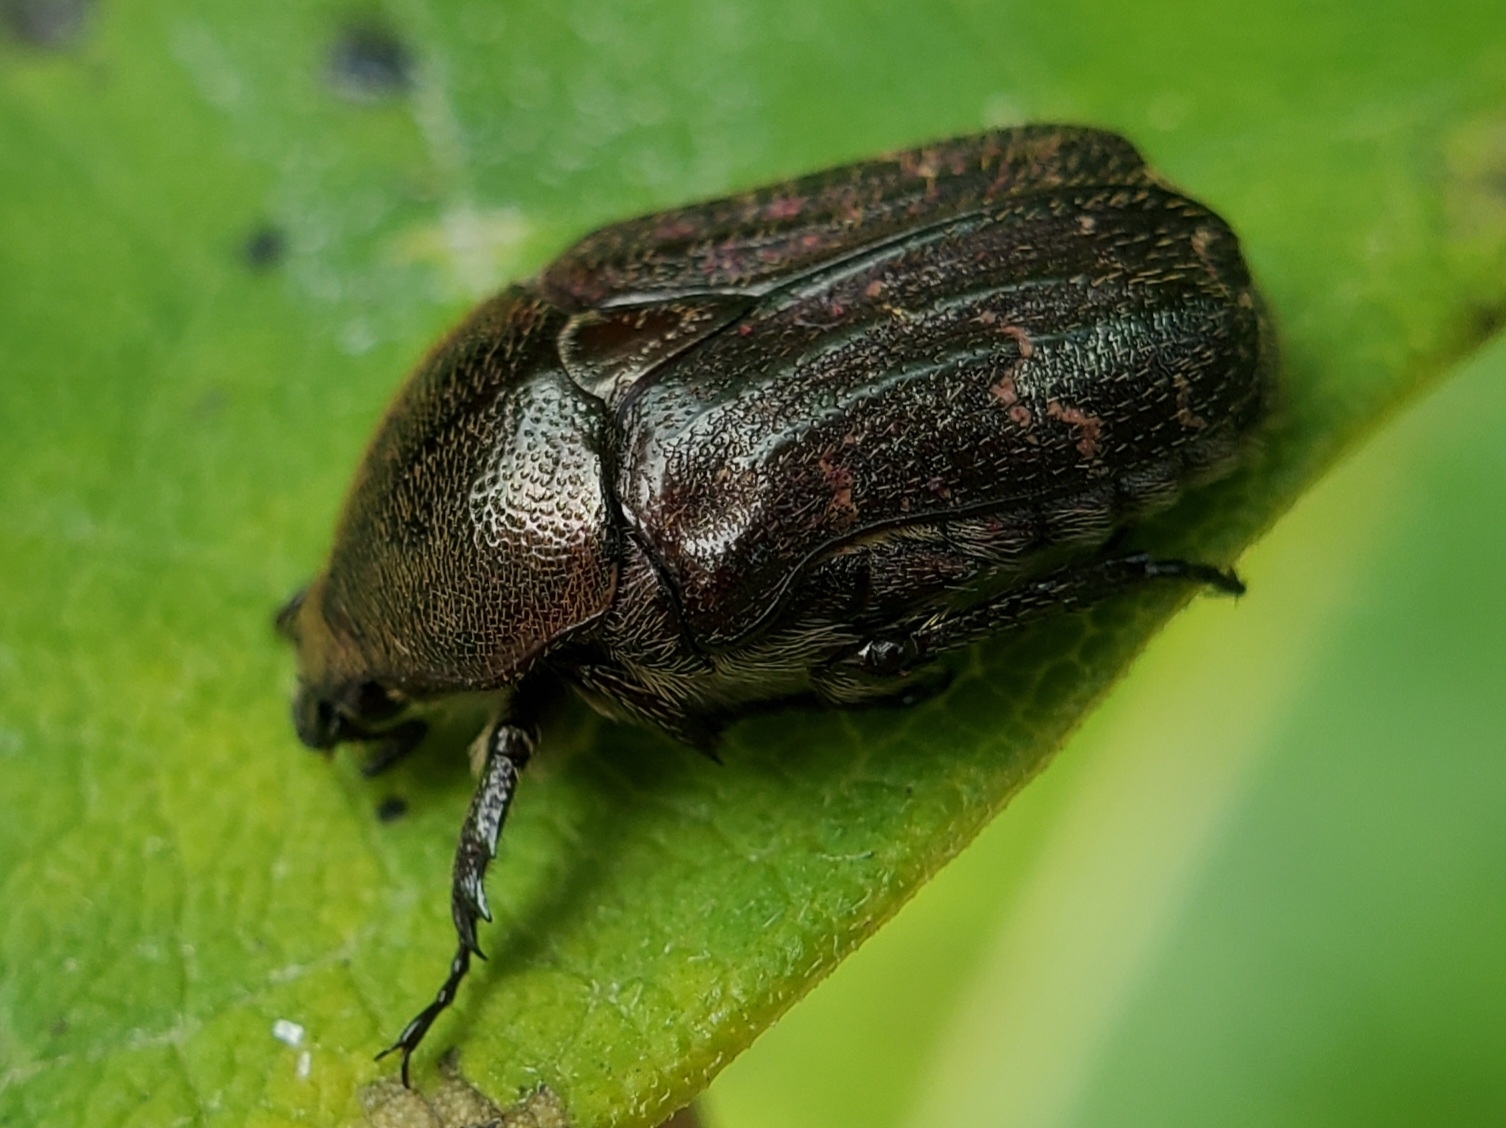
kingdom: Animalia
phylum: Arthropoda
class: Insecta
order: Coleoptera
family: Scarabaeidae
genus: Euphoria
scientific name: Euphoria sepulcralis
